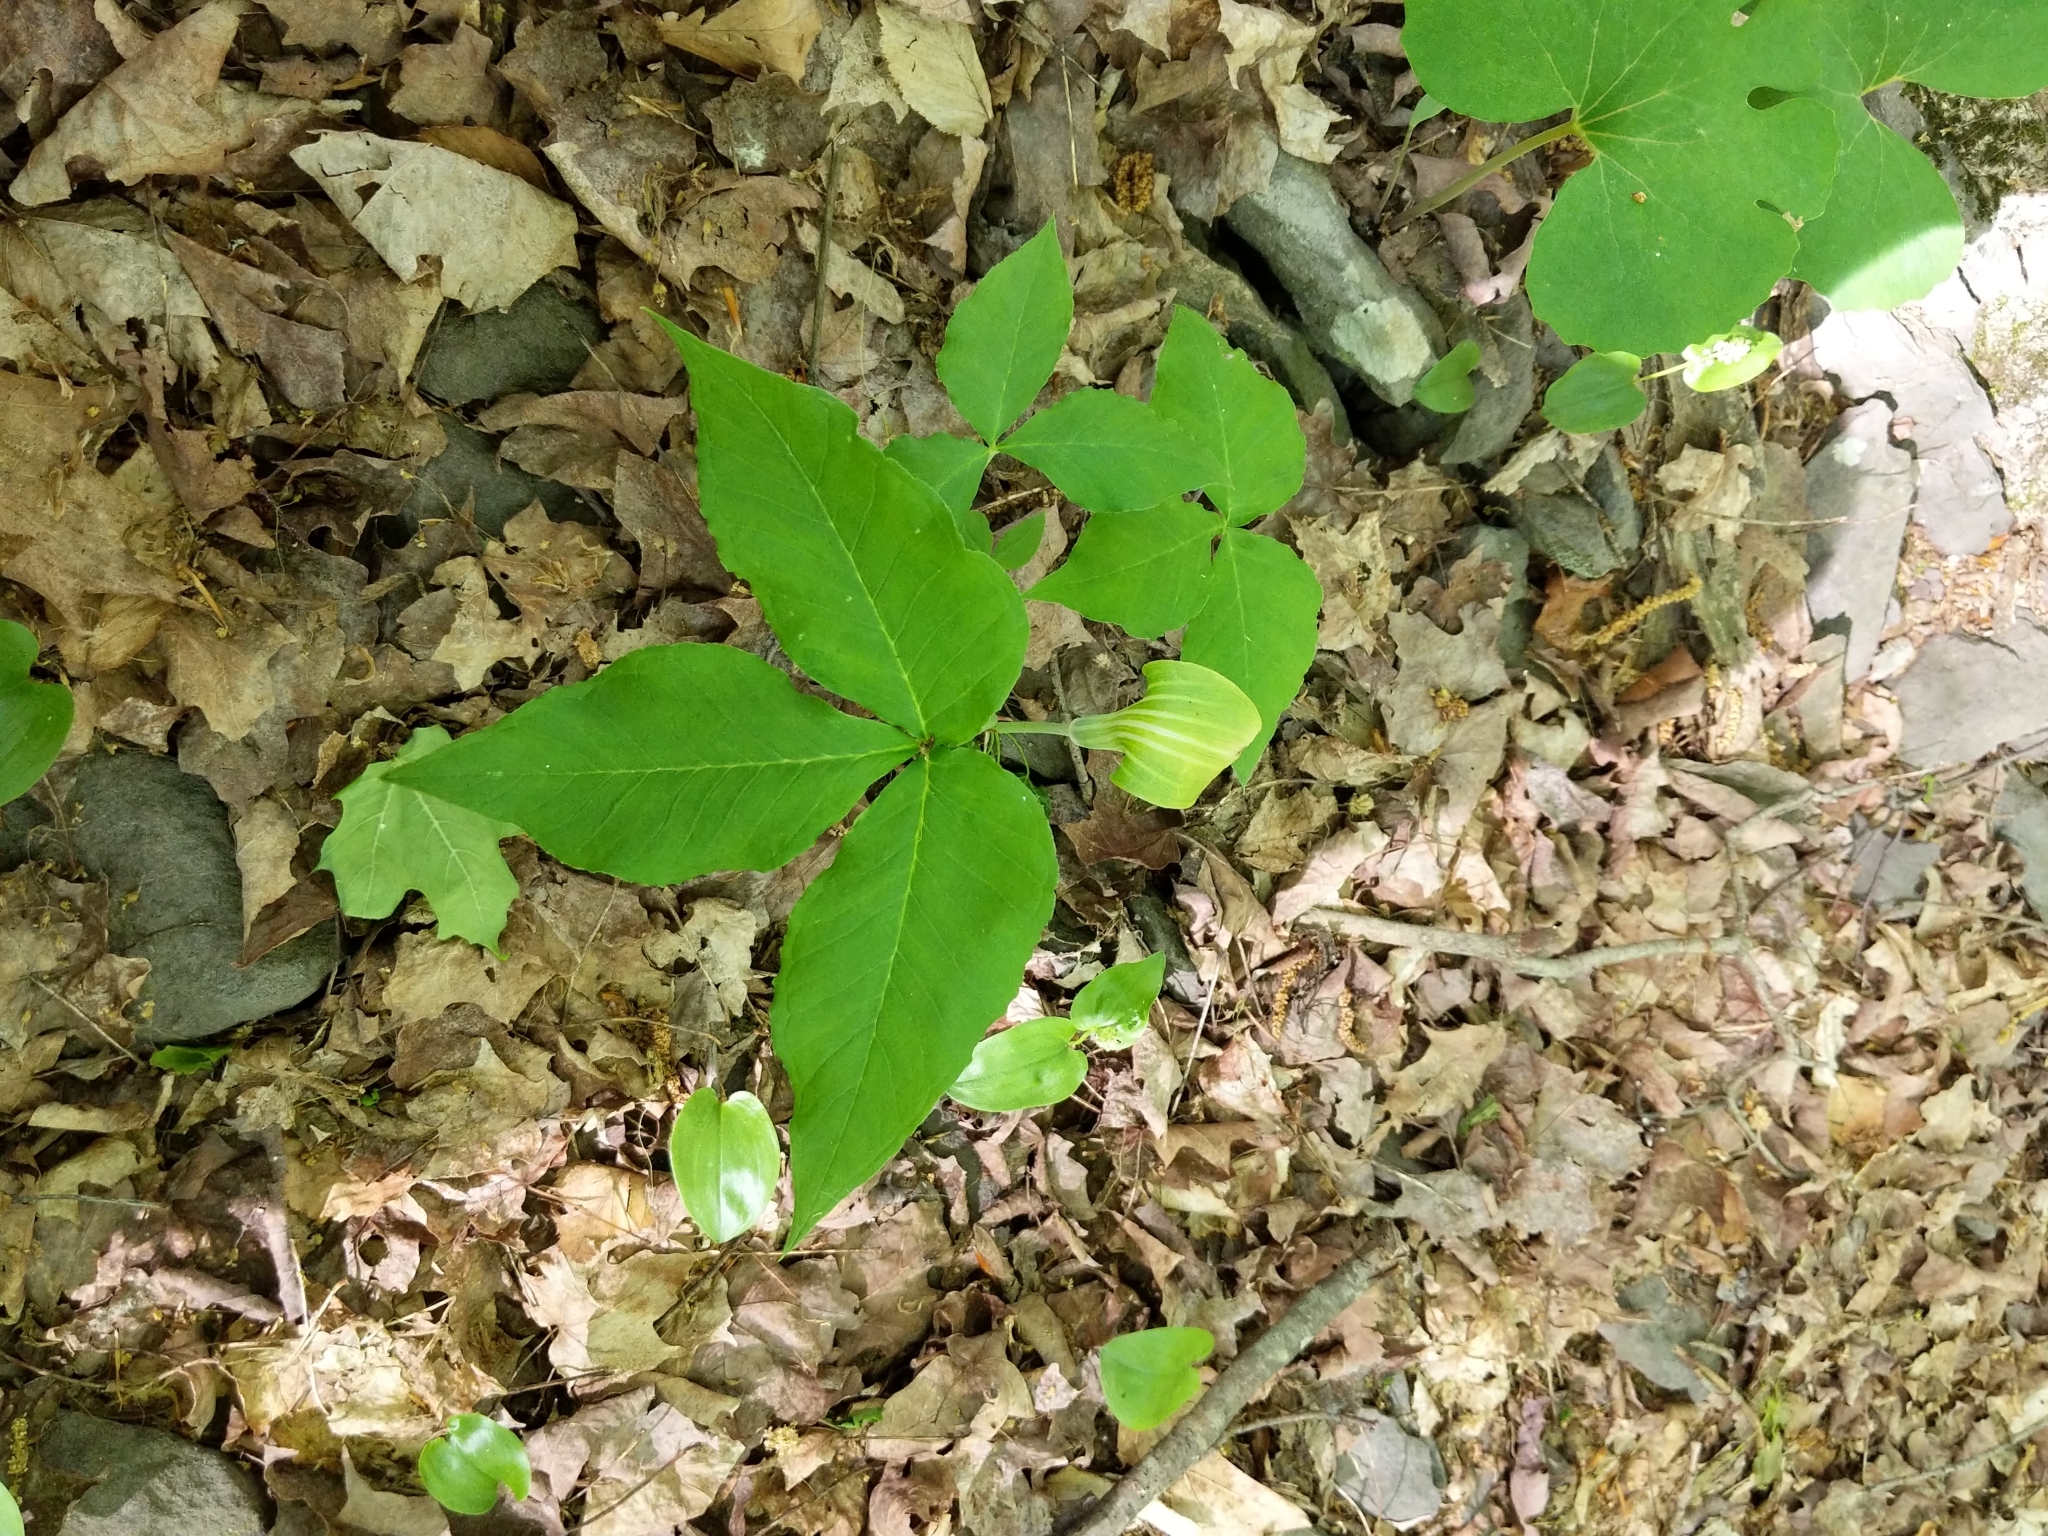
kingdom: Plantae
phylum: Tracheophyta
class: Liliopsida
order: Alismatales
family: Araceae
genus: Arisaema
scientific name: Arisaema triphyllum
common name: Jack-in-the-pulpit
